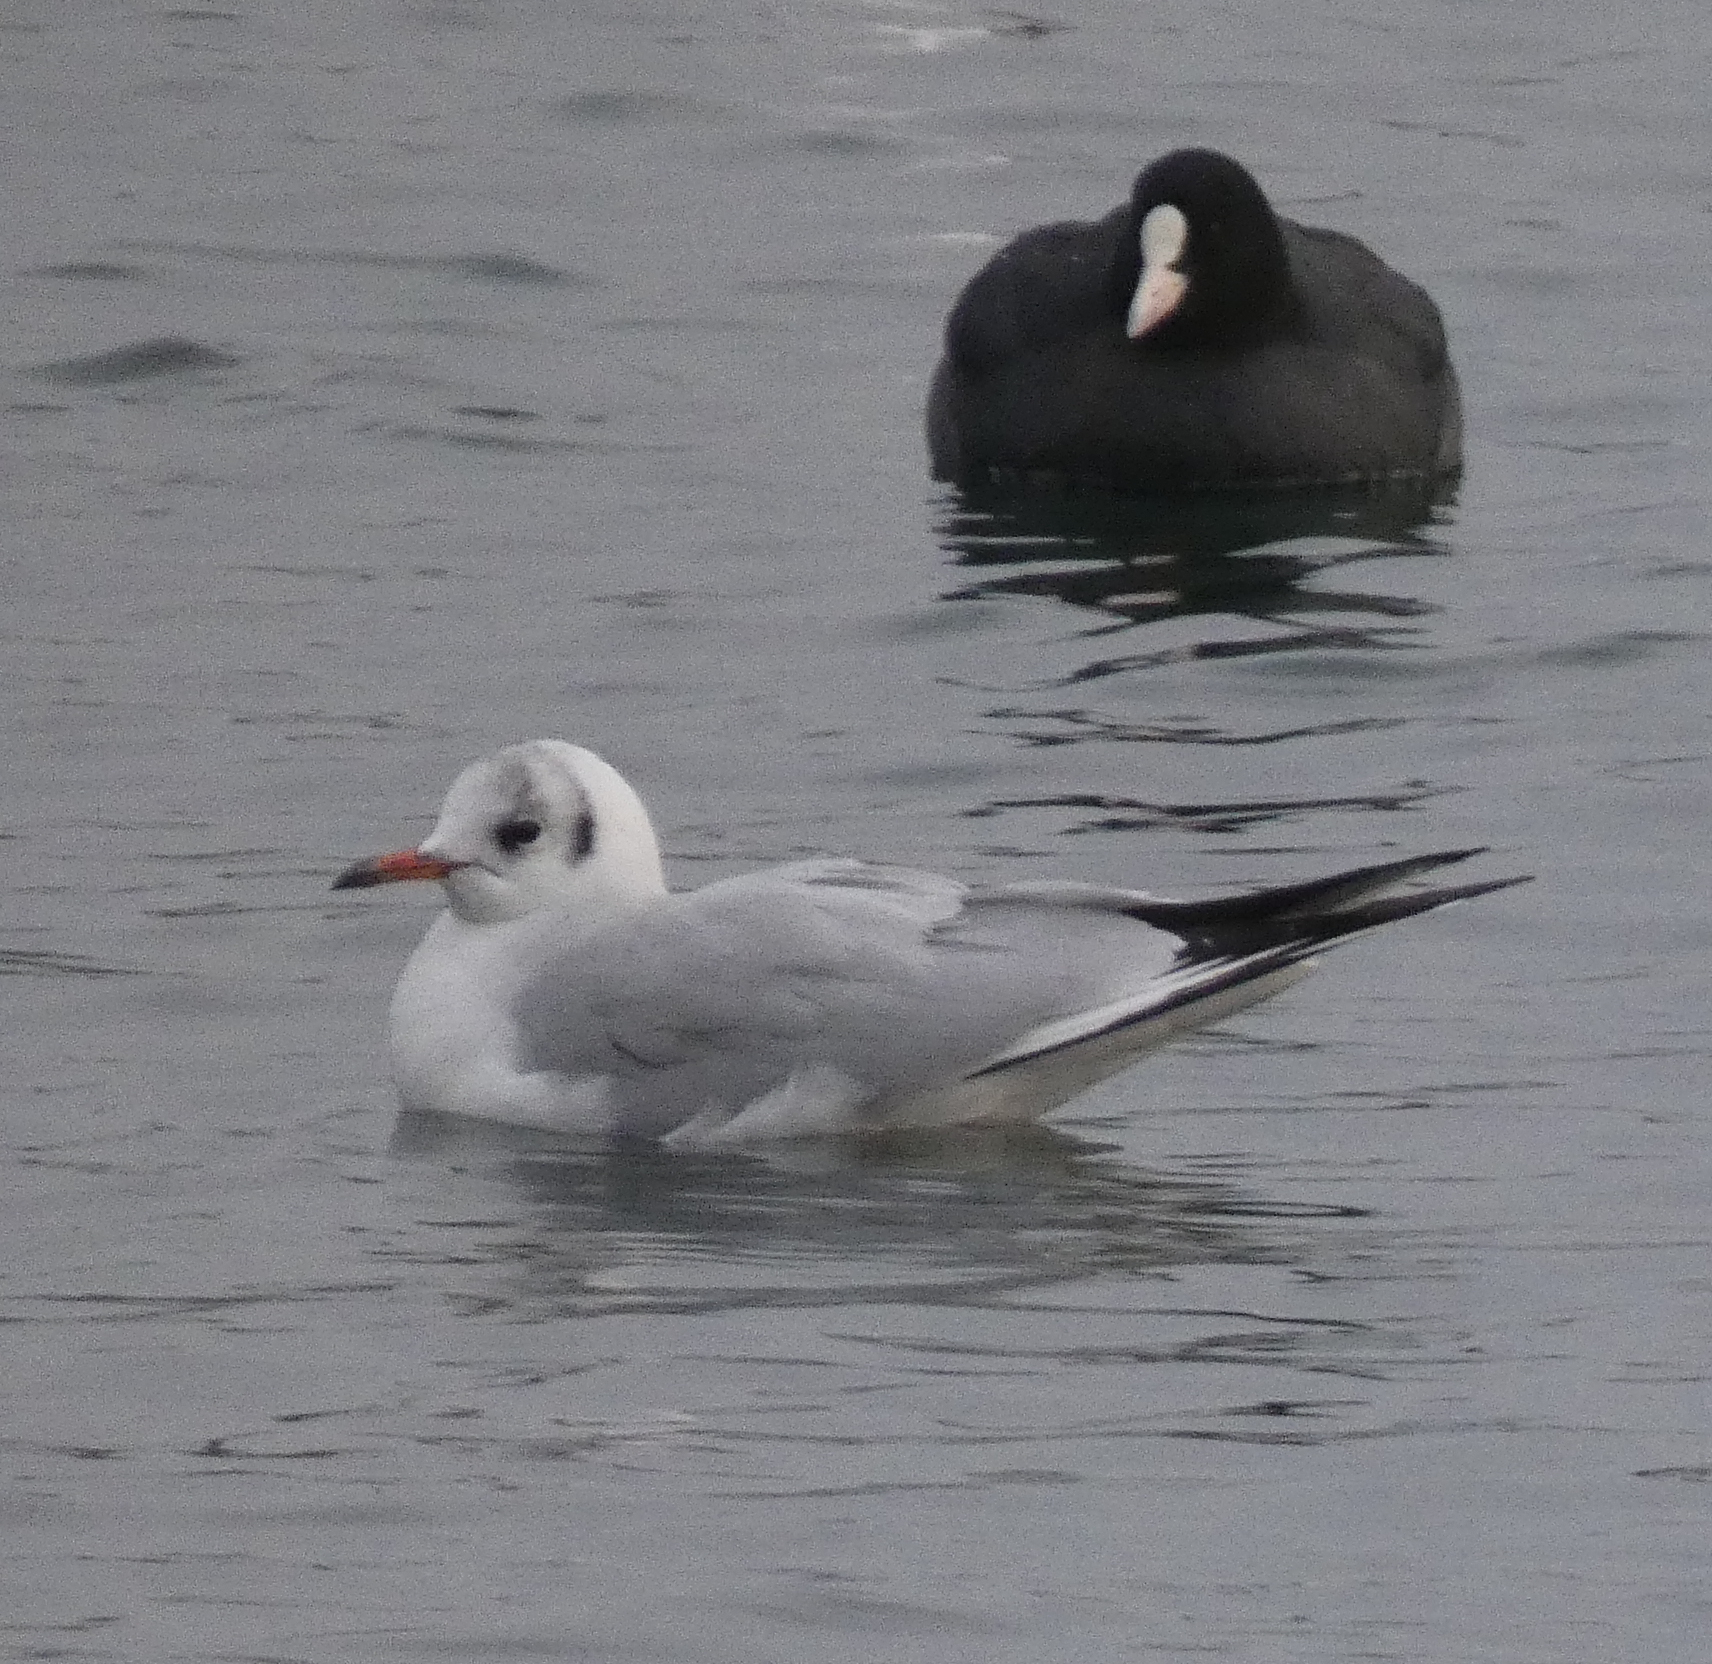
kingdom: Animalia
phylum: Chordata
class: Aves
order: Charadriiformes
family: Laridae
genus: Chroicocephalus
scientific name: Chroicocephalus ridibundus
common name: Black-headed gull
